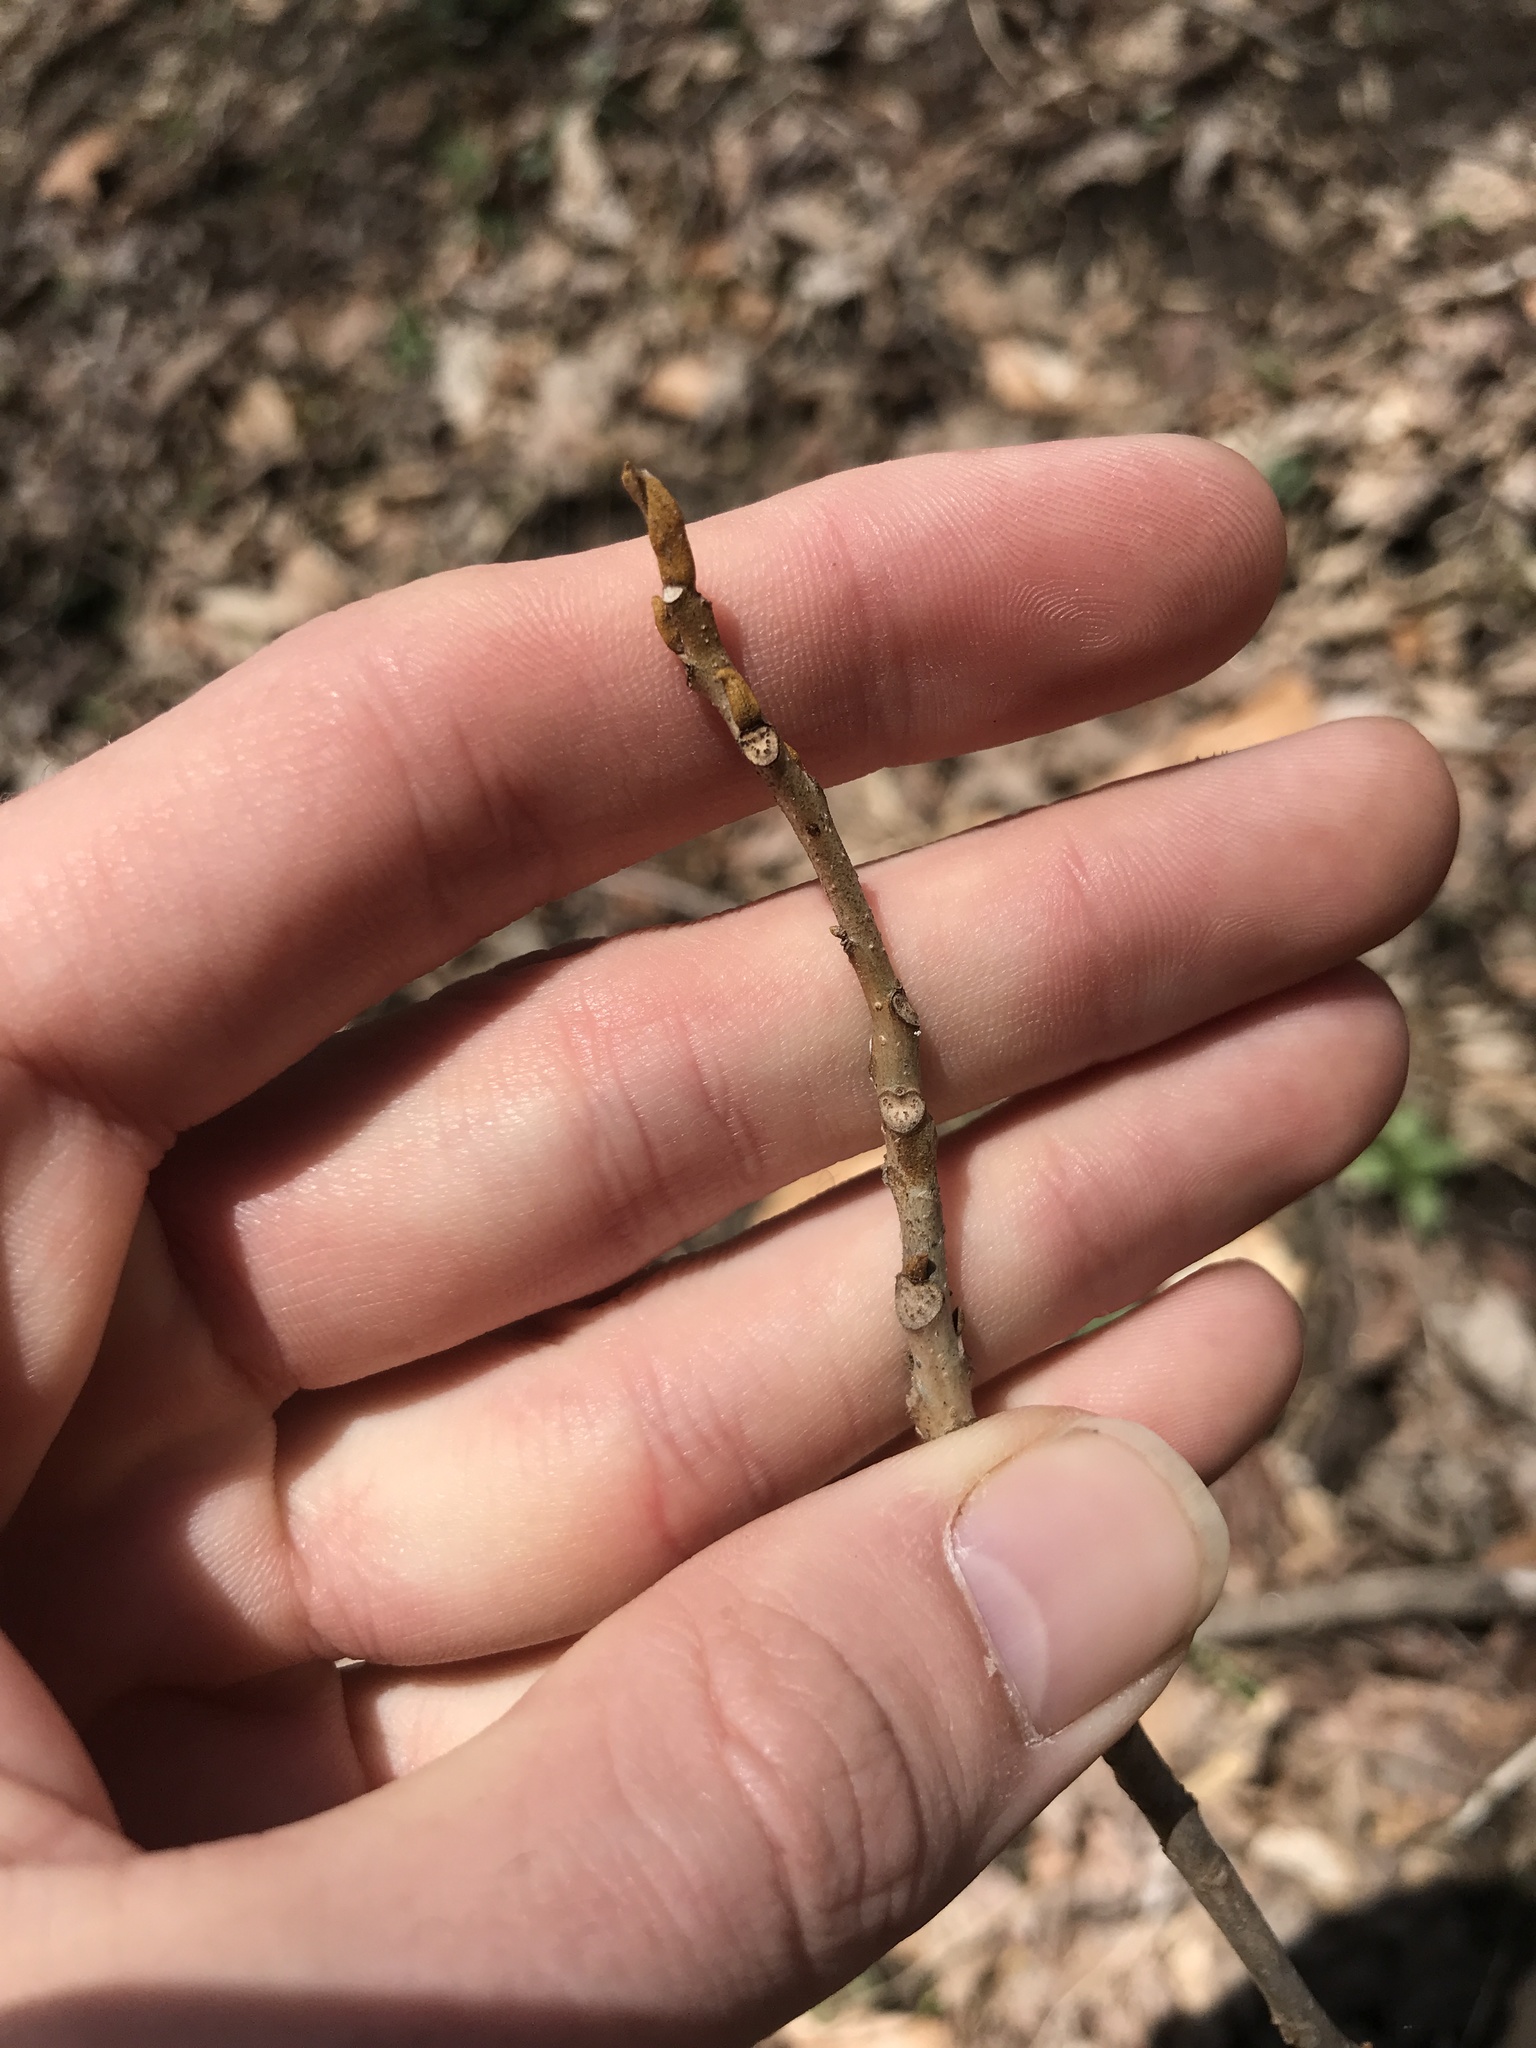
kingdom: Plantae
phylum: Tracheophyta
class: Magnoliopsida
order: Fagales
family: Juglandaceae
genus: Carya
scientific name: Carya cordiformis
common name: Bitternut hickory
